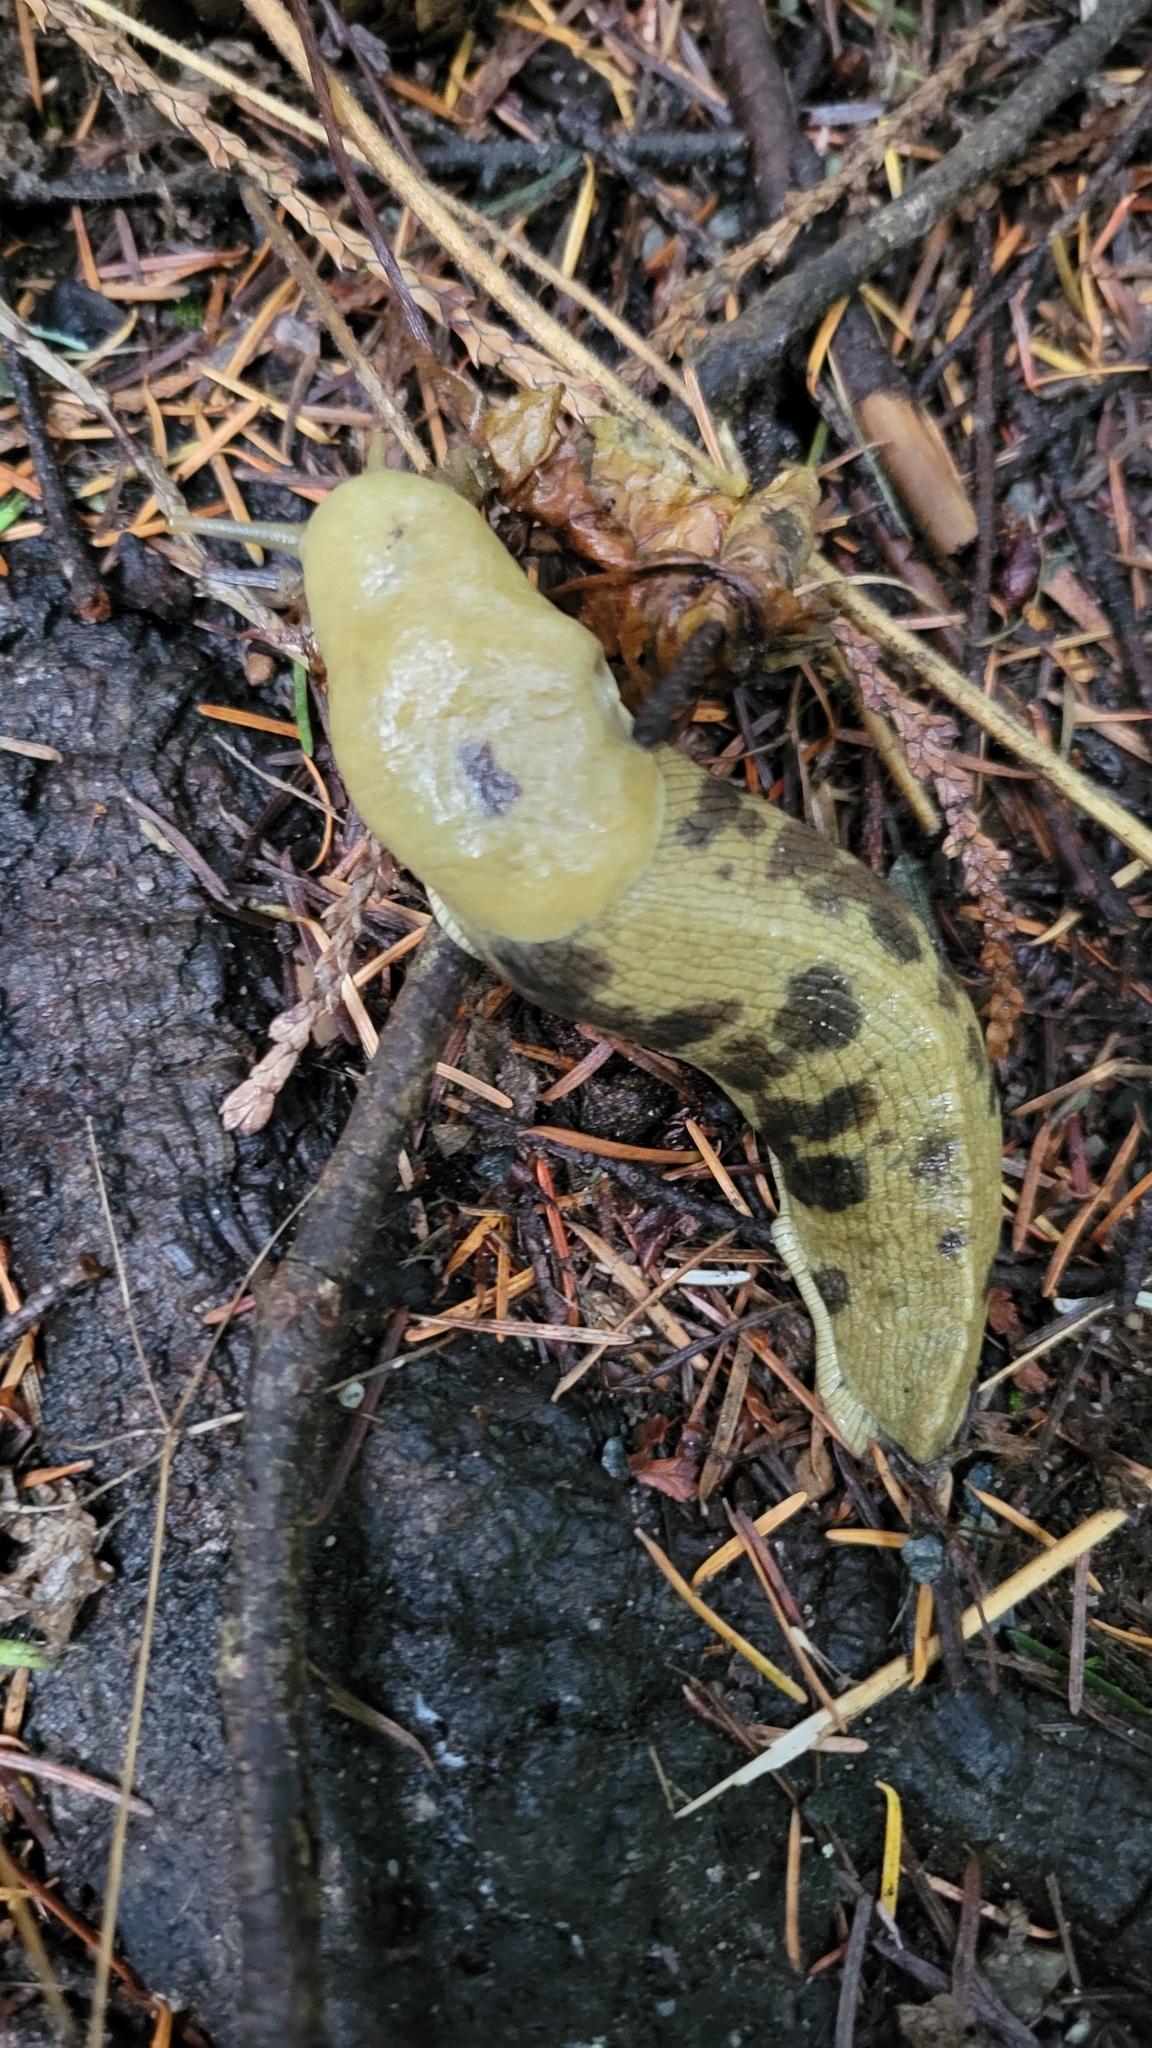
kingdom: Animalia
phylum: Mollusca
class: Gastropoda
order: Stylommatophora
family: Ariolimacidae
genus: Ariolimax
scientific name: Ariolimax columbianus
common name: Pacific banana slug
